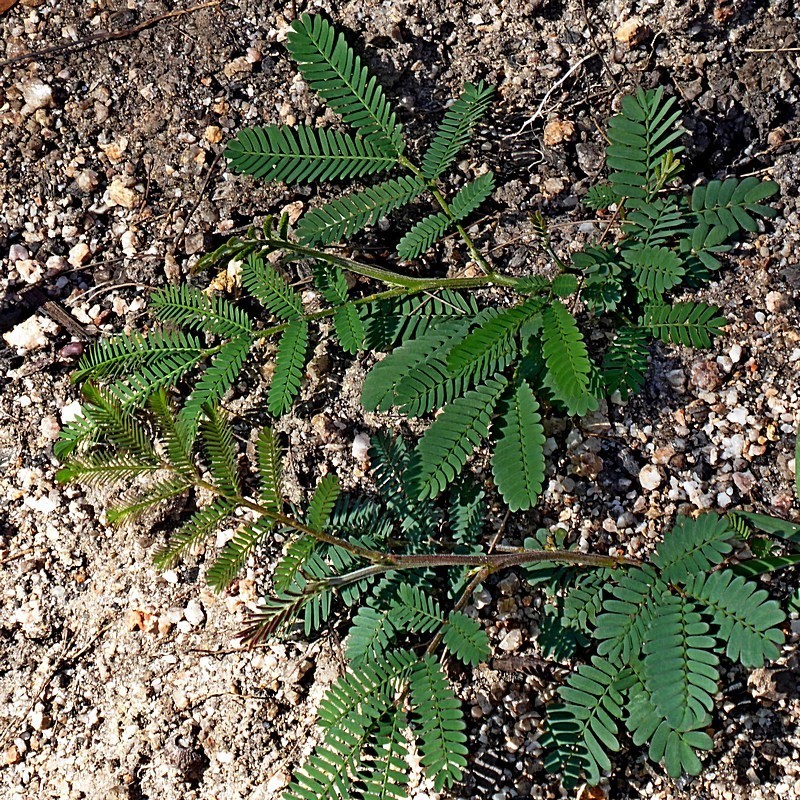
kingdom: Plantae
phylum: Tracheophyta
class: Magnoliopsida
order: Fabales
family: Fabaceae
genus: Acacia
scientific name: Acacia mearnsii
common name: Black wattle
